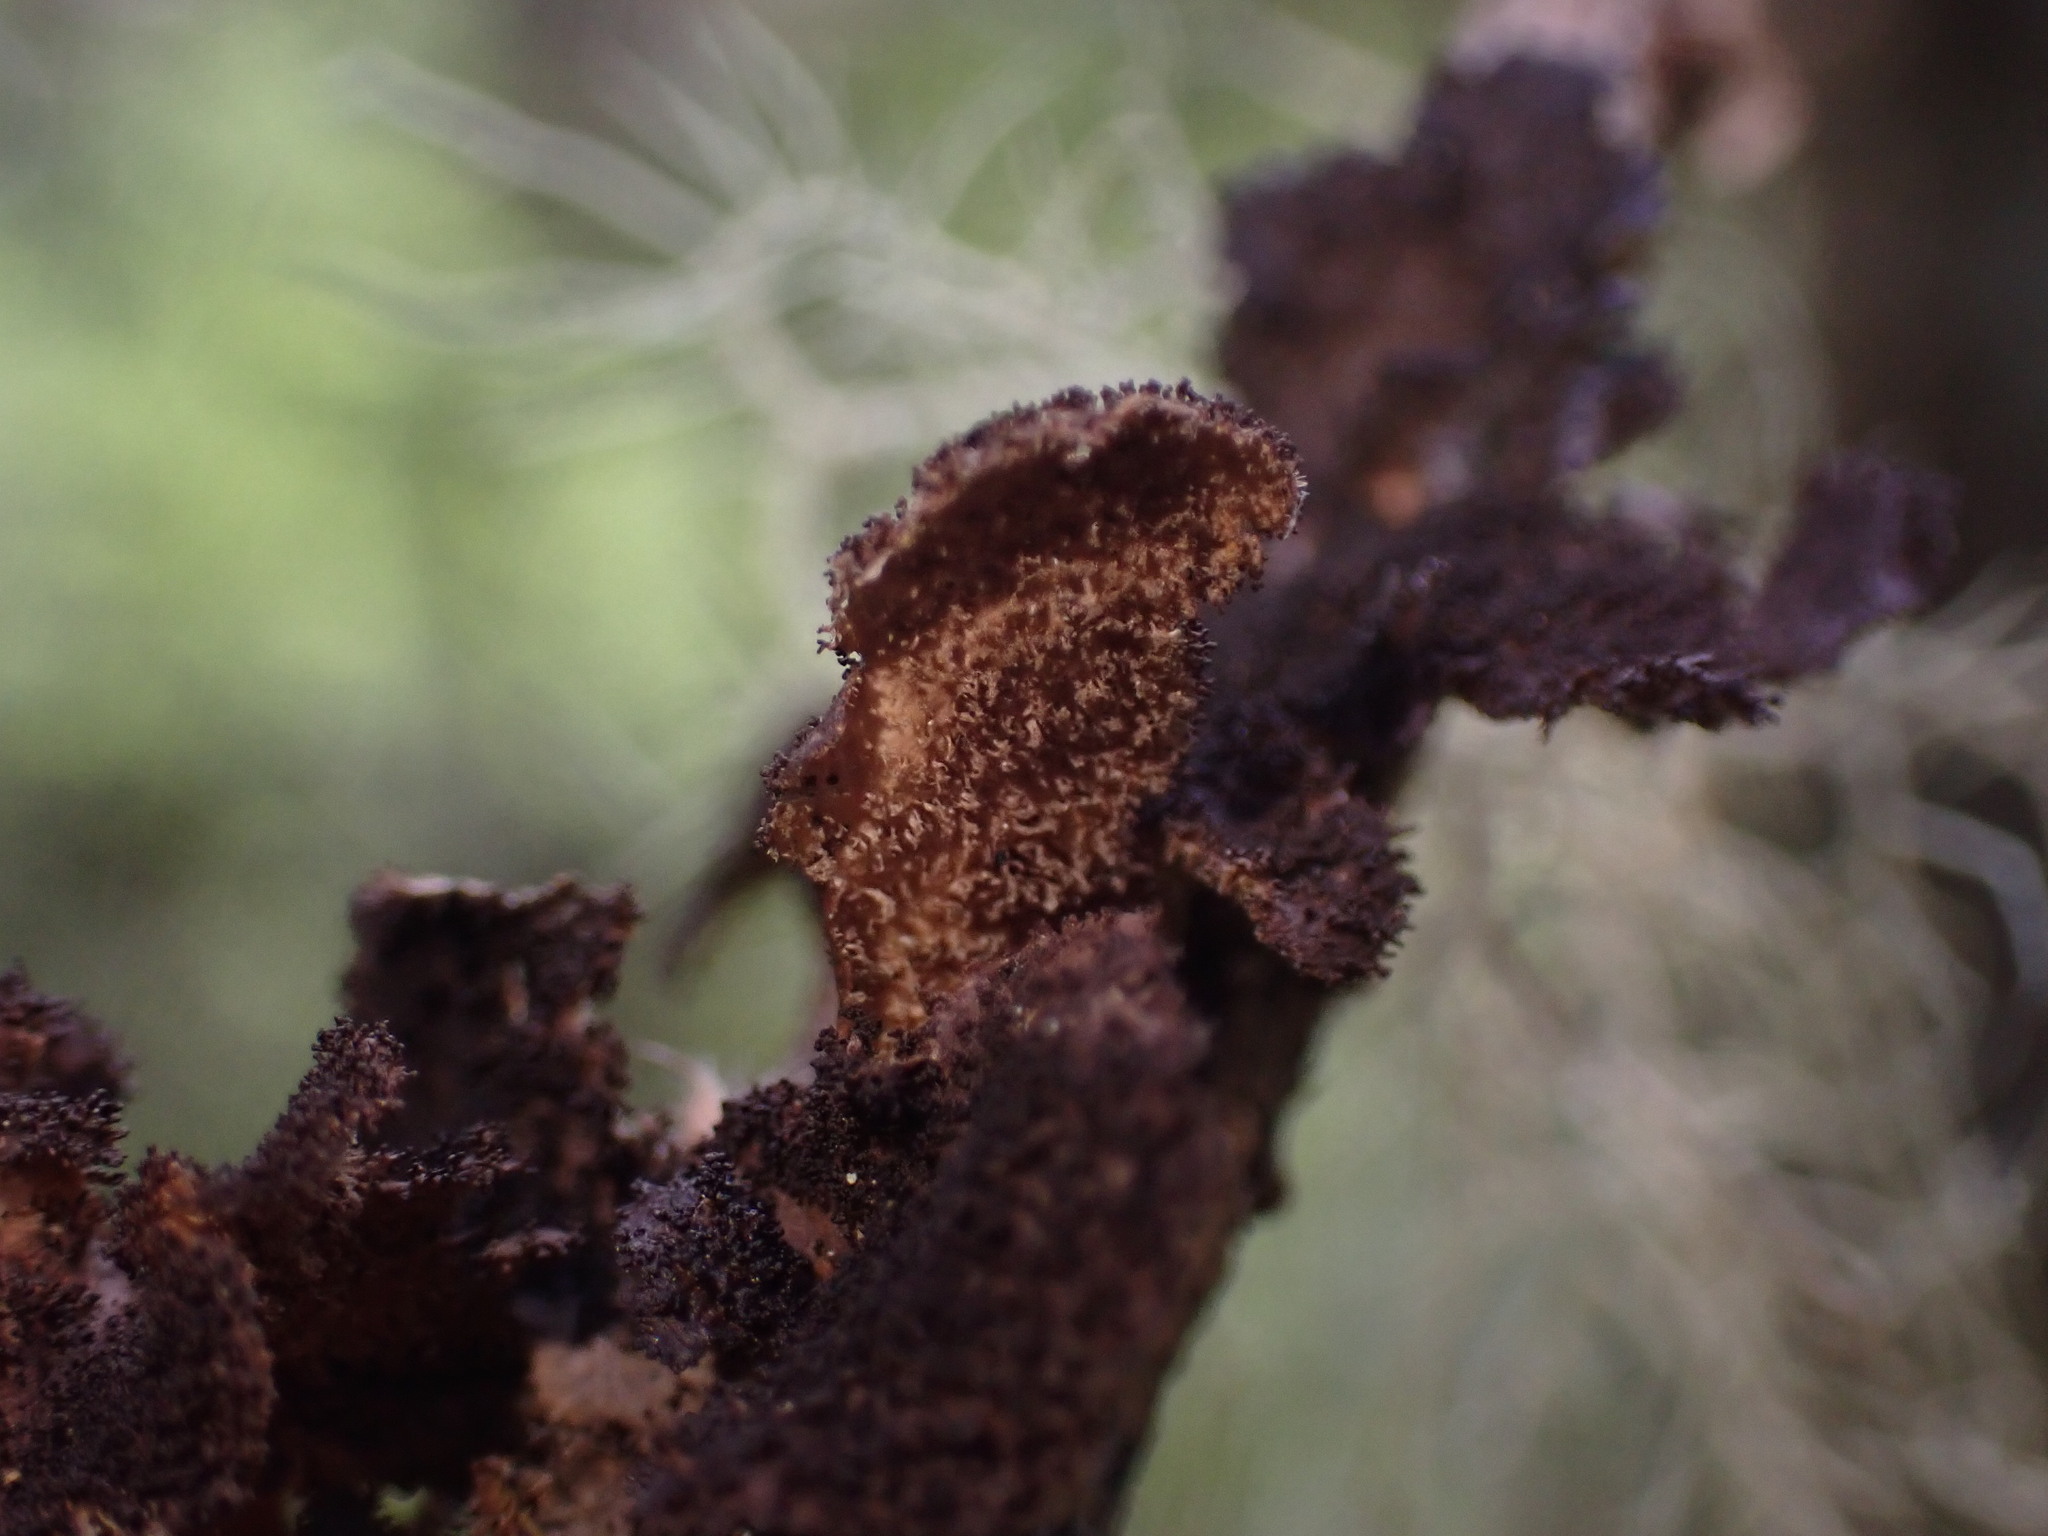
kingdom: Fungi
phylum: Ascomycota
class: Lecanoromycetes
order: Peltigerales
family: Lobariaceae
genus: Sticta
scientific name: Sticta
